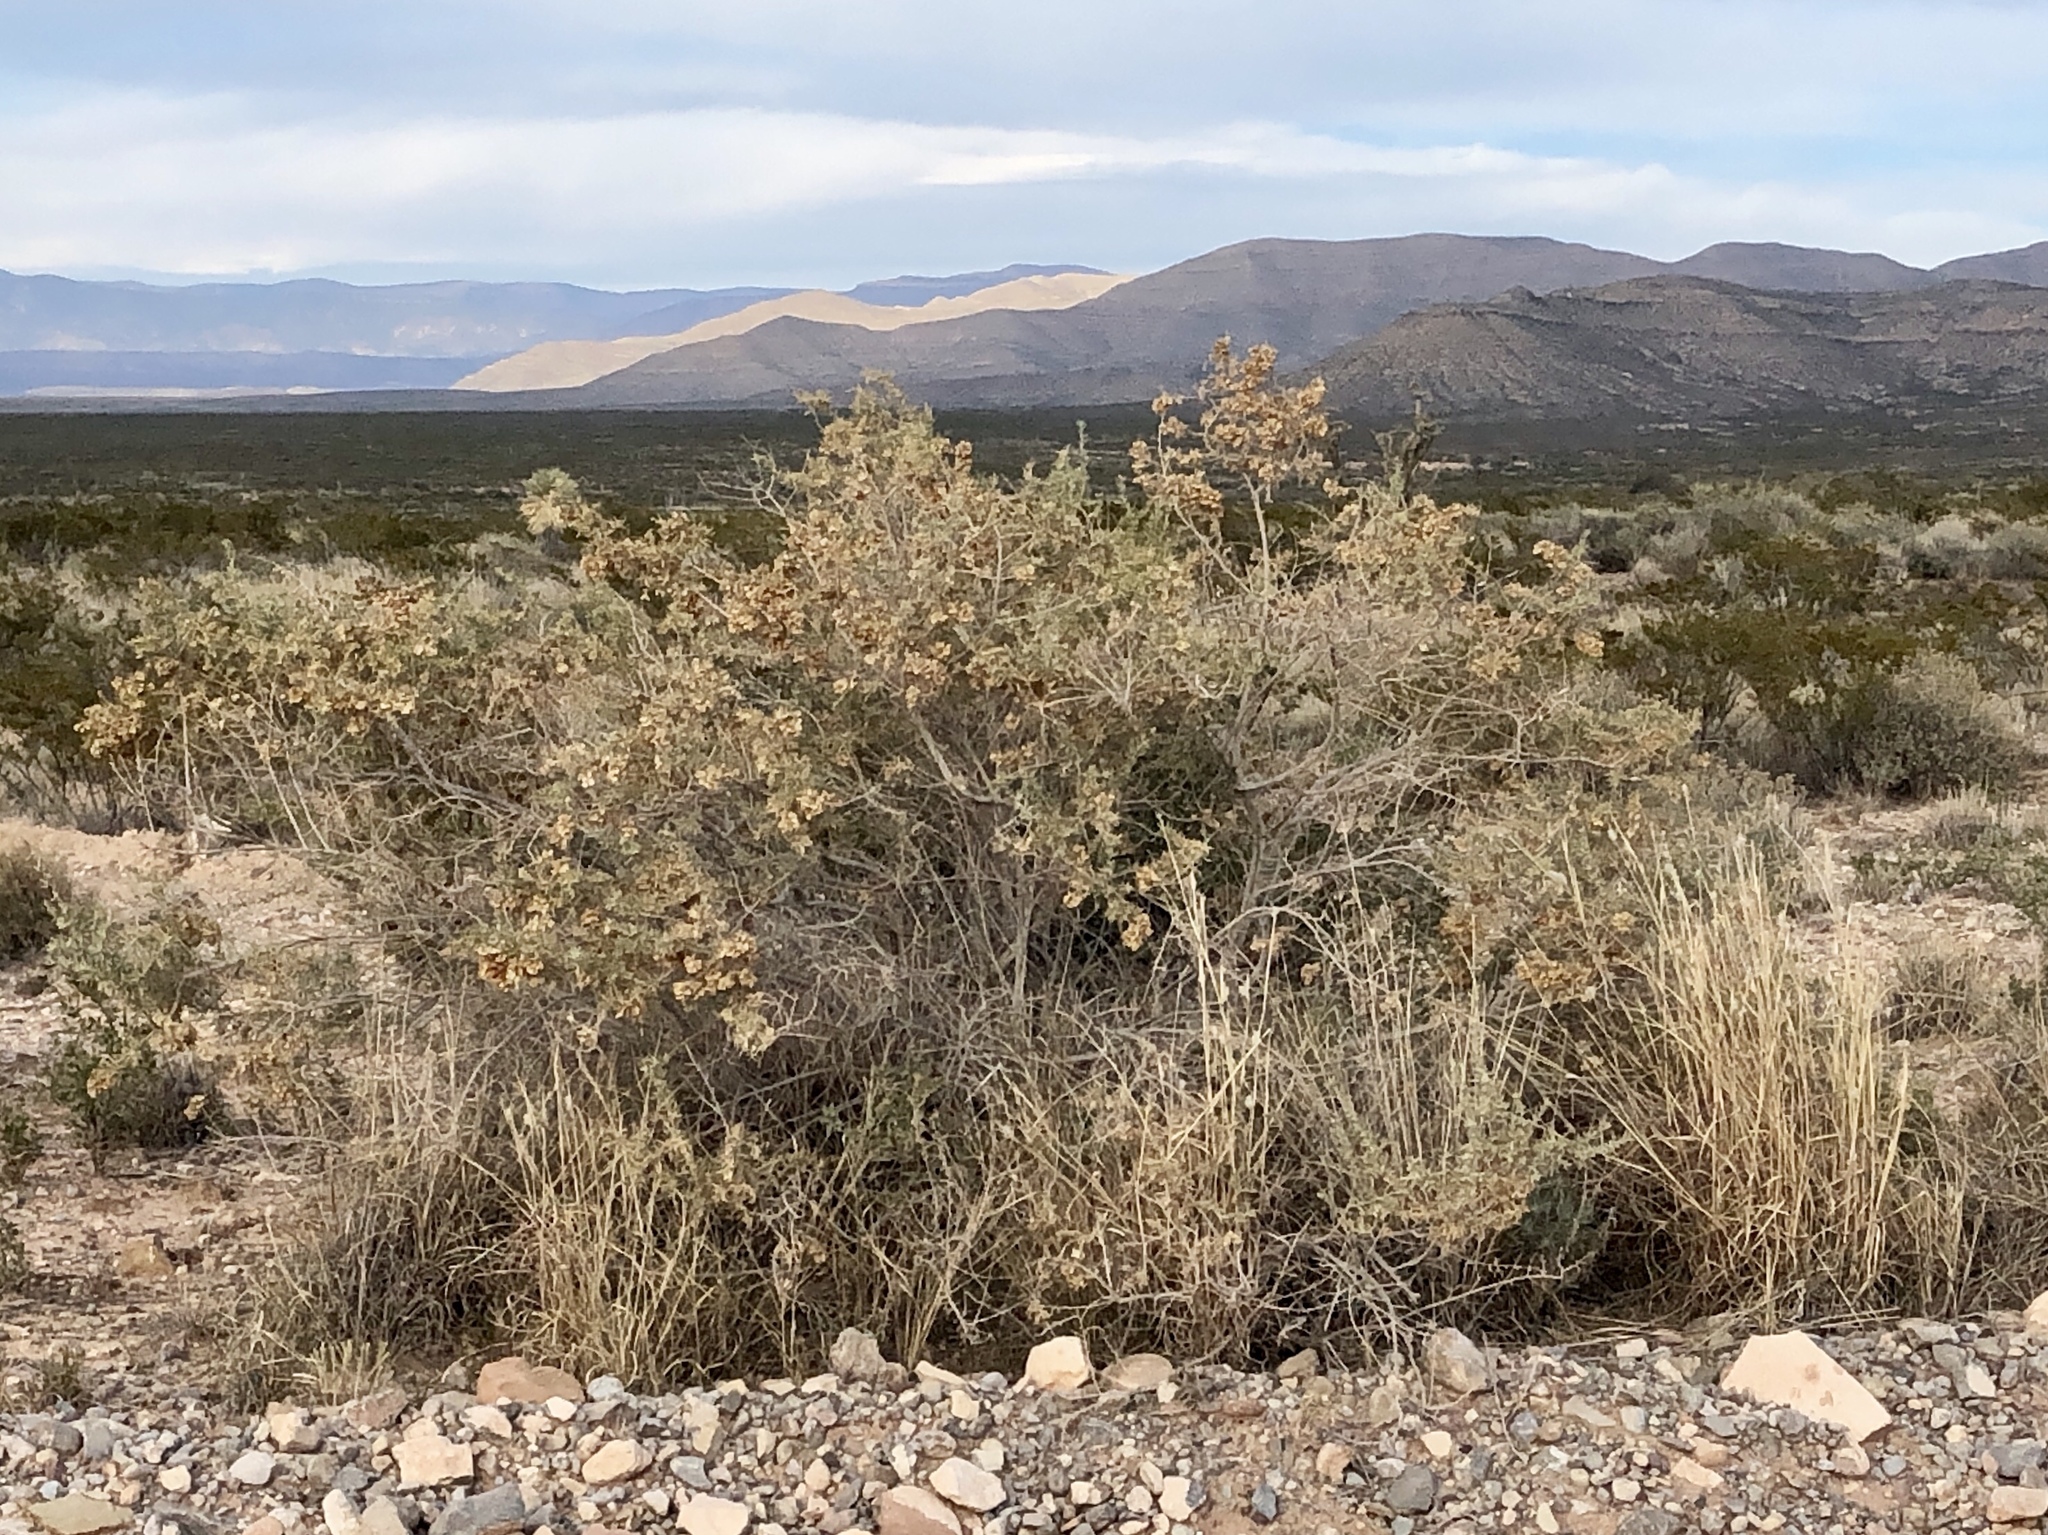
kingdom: Plantae
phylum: Tracheophyta
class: Magnoliopsida
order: Caryophyllales
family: Amaranthaceae
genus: Atriplex
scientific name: Atriplex canescens
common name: Four-wing saltbush
